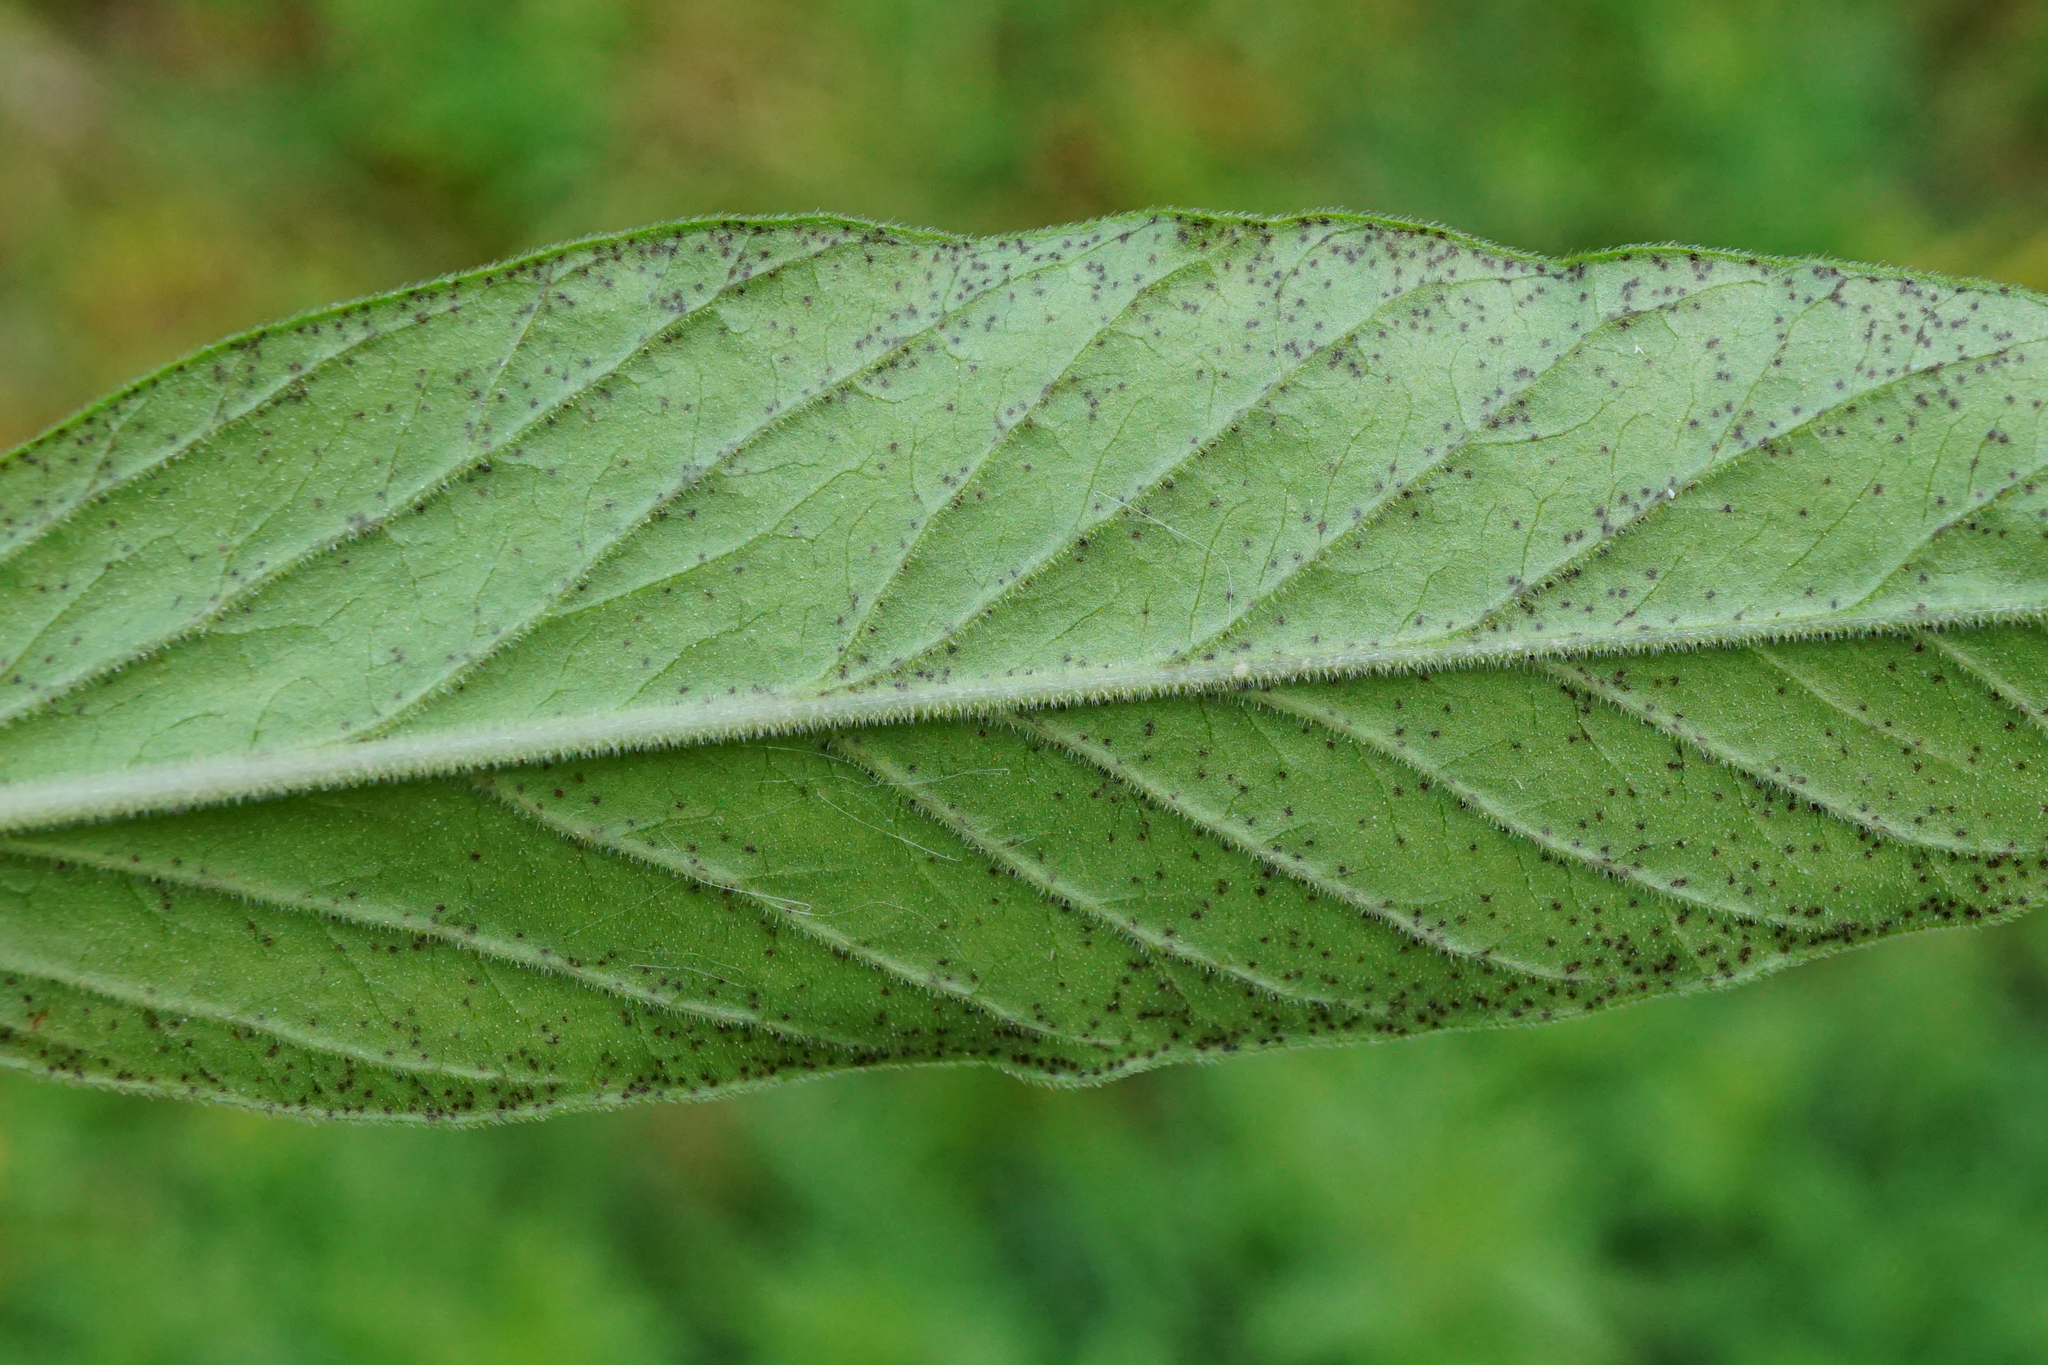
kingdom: Plantae
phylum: Tracheophyta
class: Magnoliopsida
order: Ericales
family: Primulaceae
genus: Lysimachia
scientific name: Lysimachia punctata
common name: Dotted loosestrife
